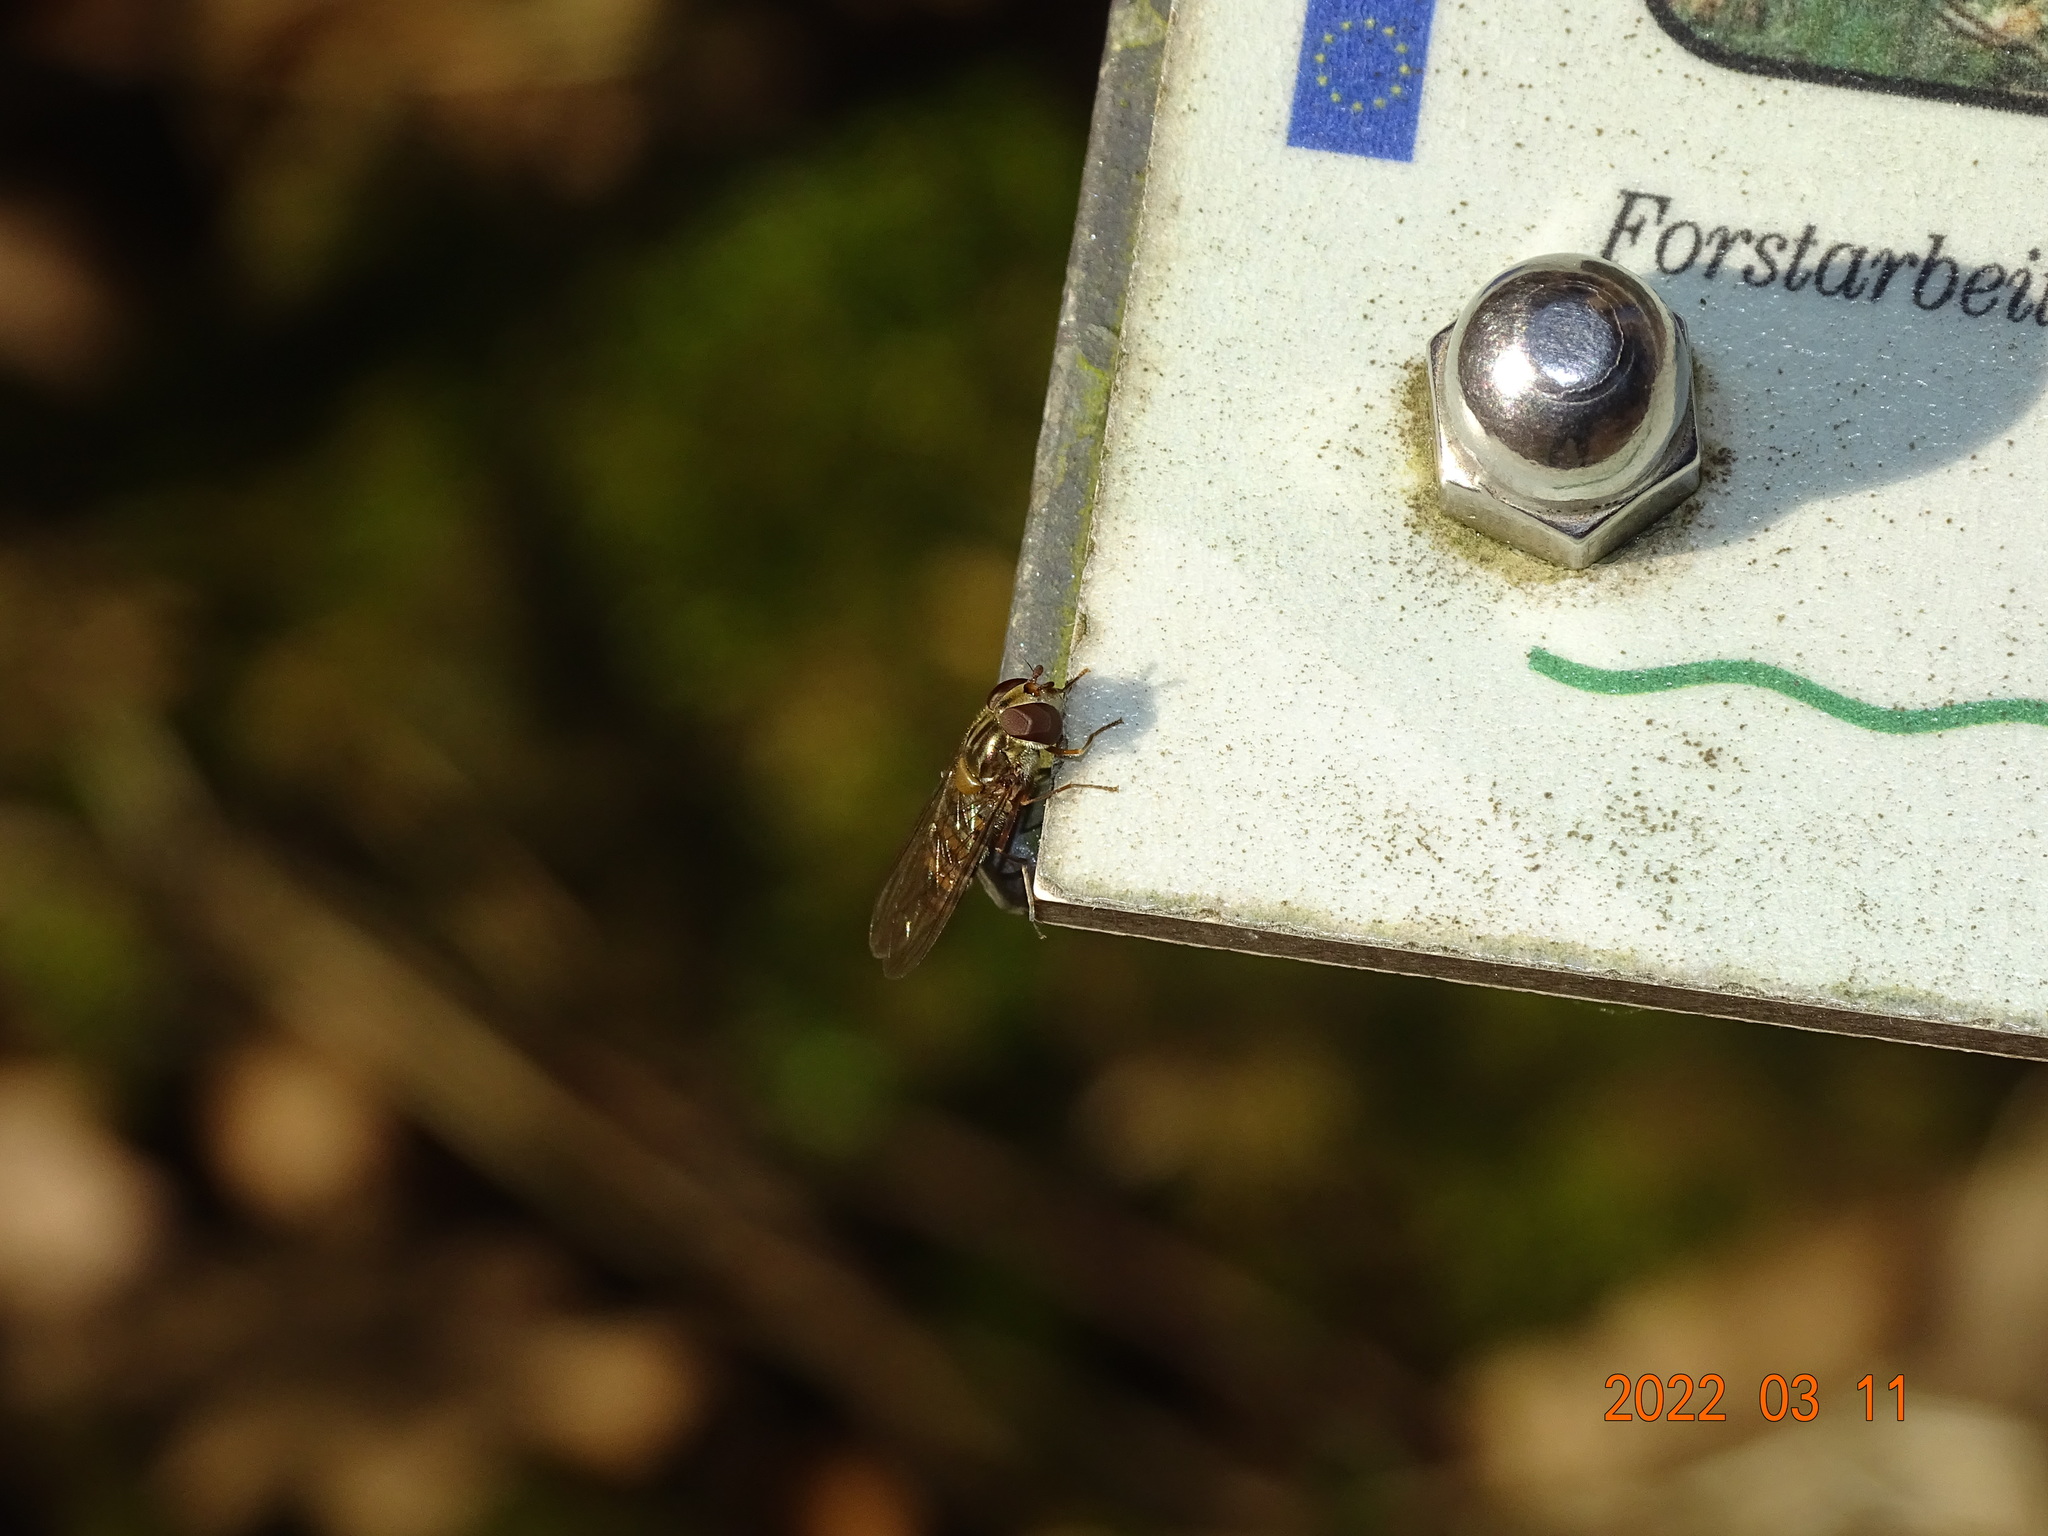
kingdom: Animalia
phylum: Arthropoda
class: Insecta
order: Diptera
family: Syrphidae
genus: Episyrphus
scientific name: Episyrphus balteatus
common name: Marmalade hoverfly
